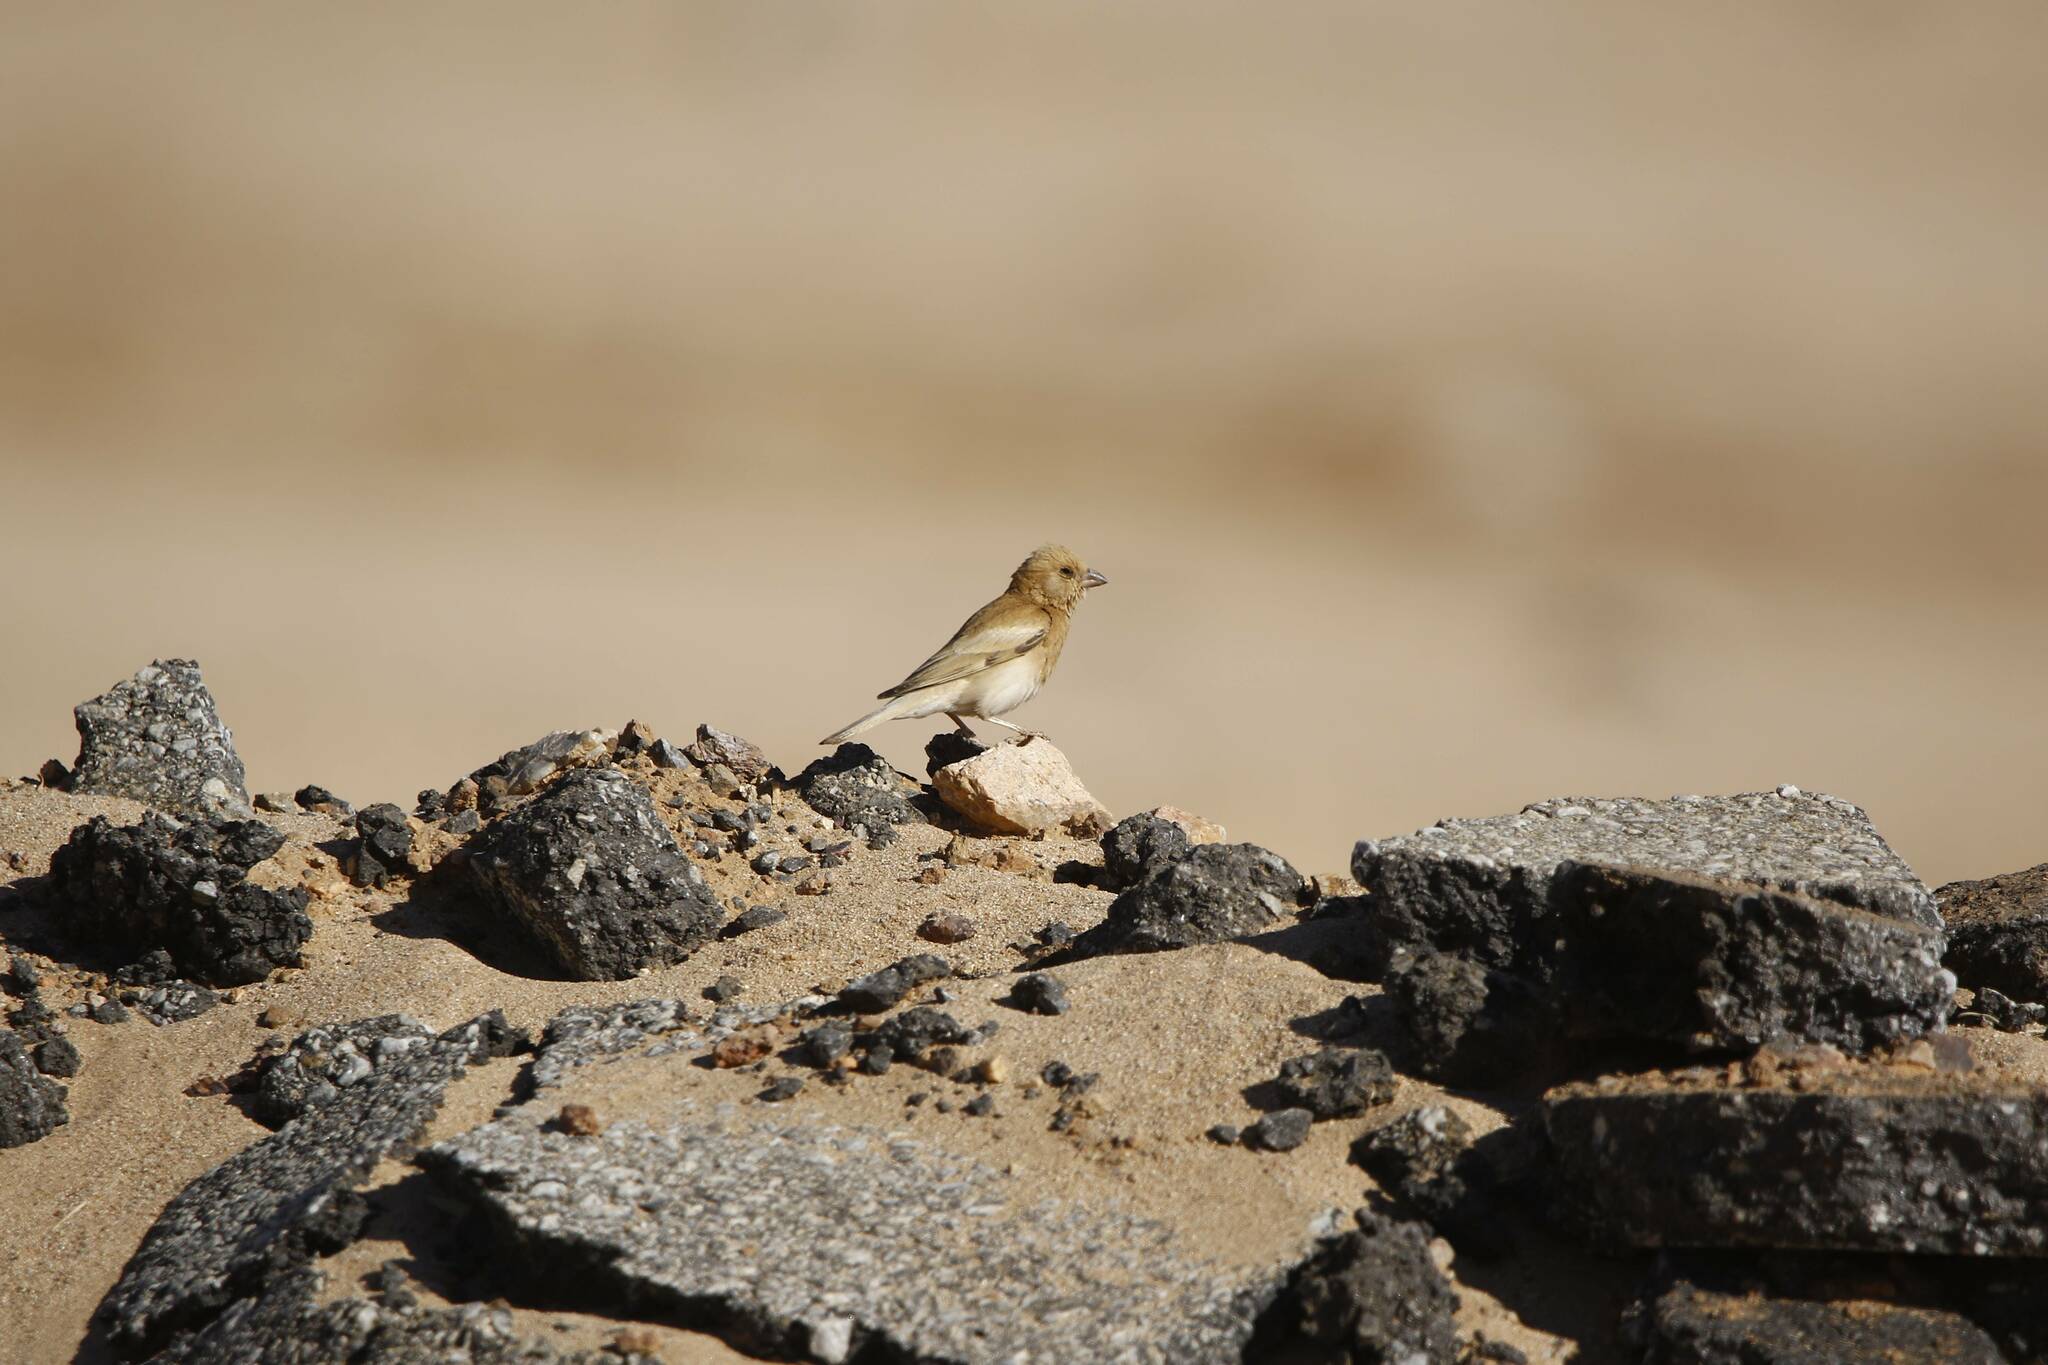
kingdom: Animalia
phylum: Chordata
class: Aves
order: Passeriformes
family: Passeridae
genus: Passer
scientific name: Passer simplex
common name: Desert sparrow
